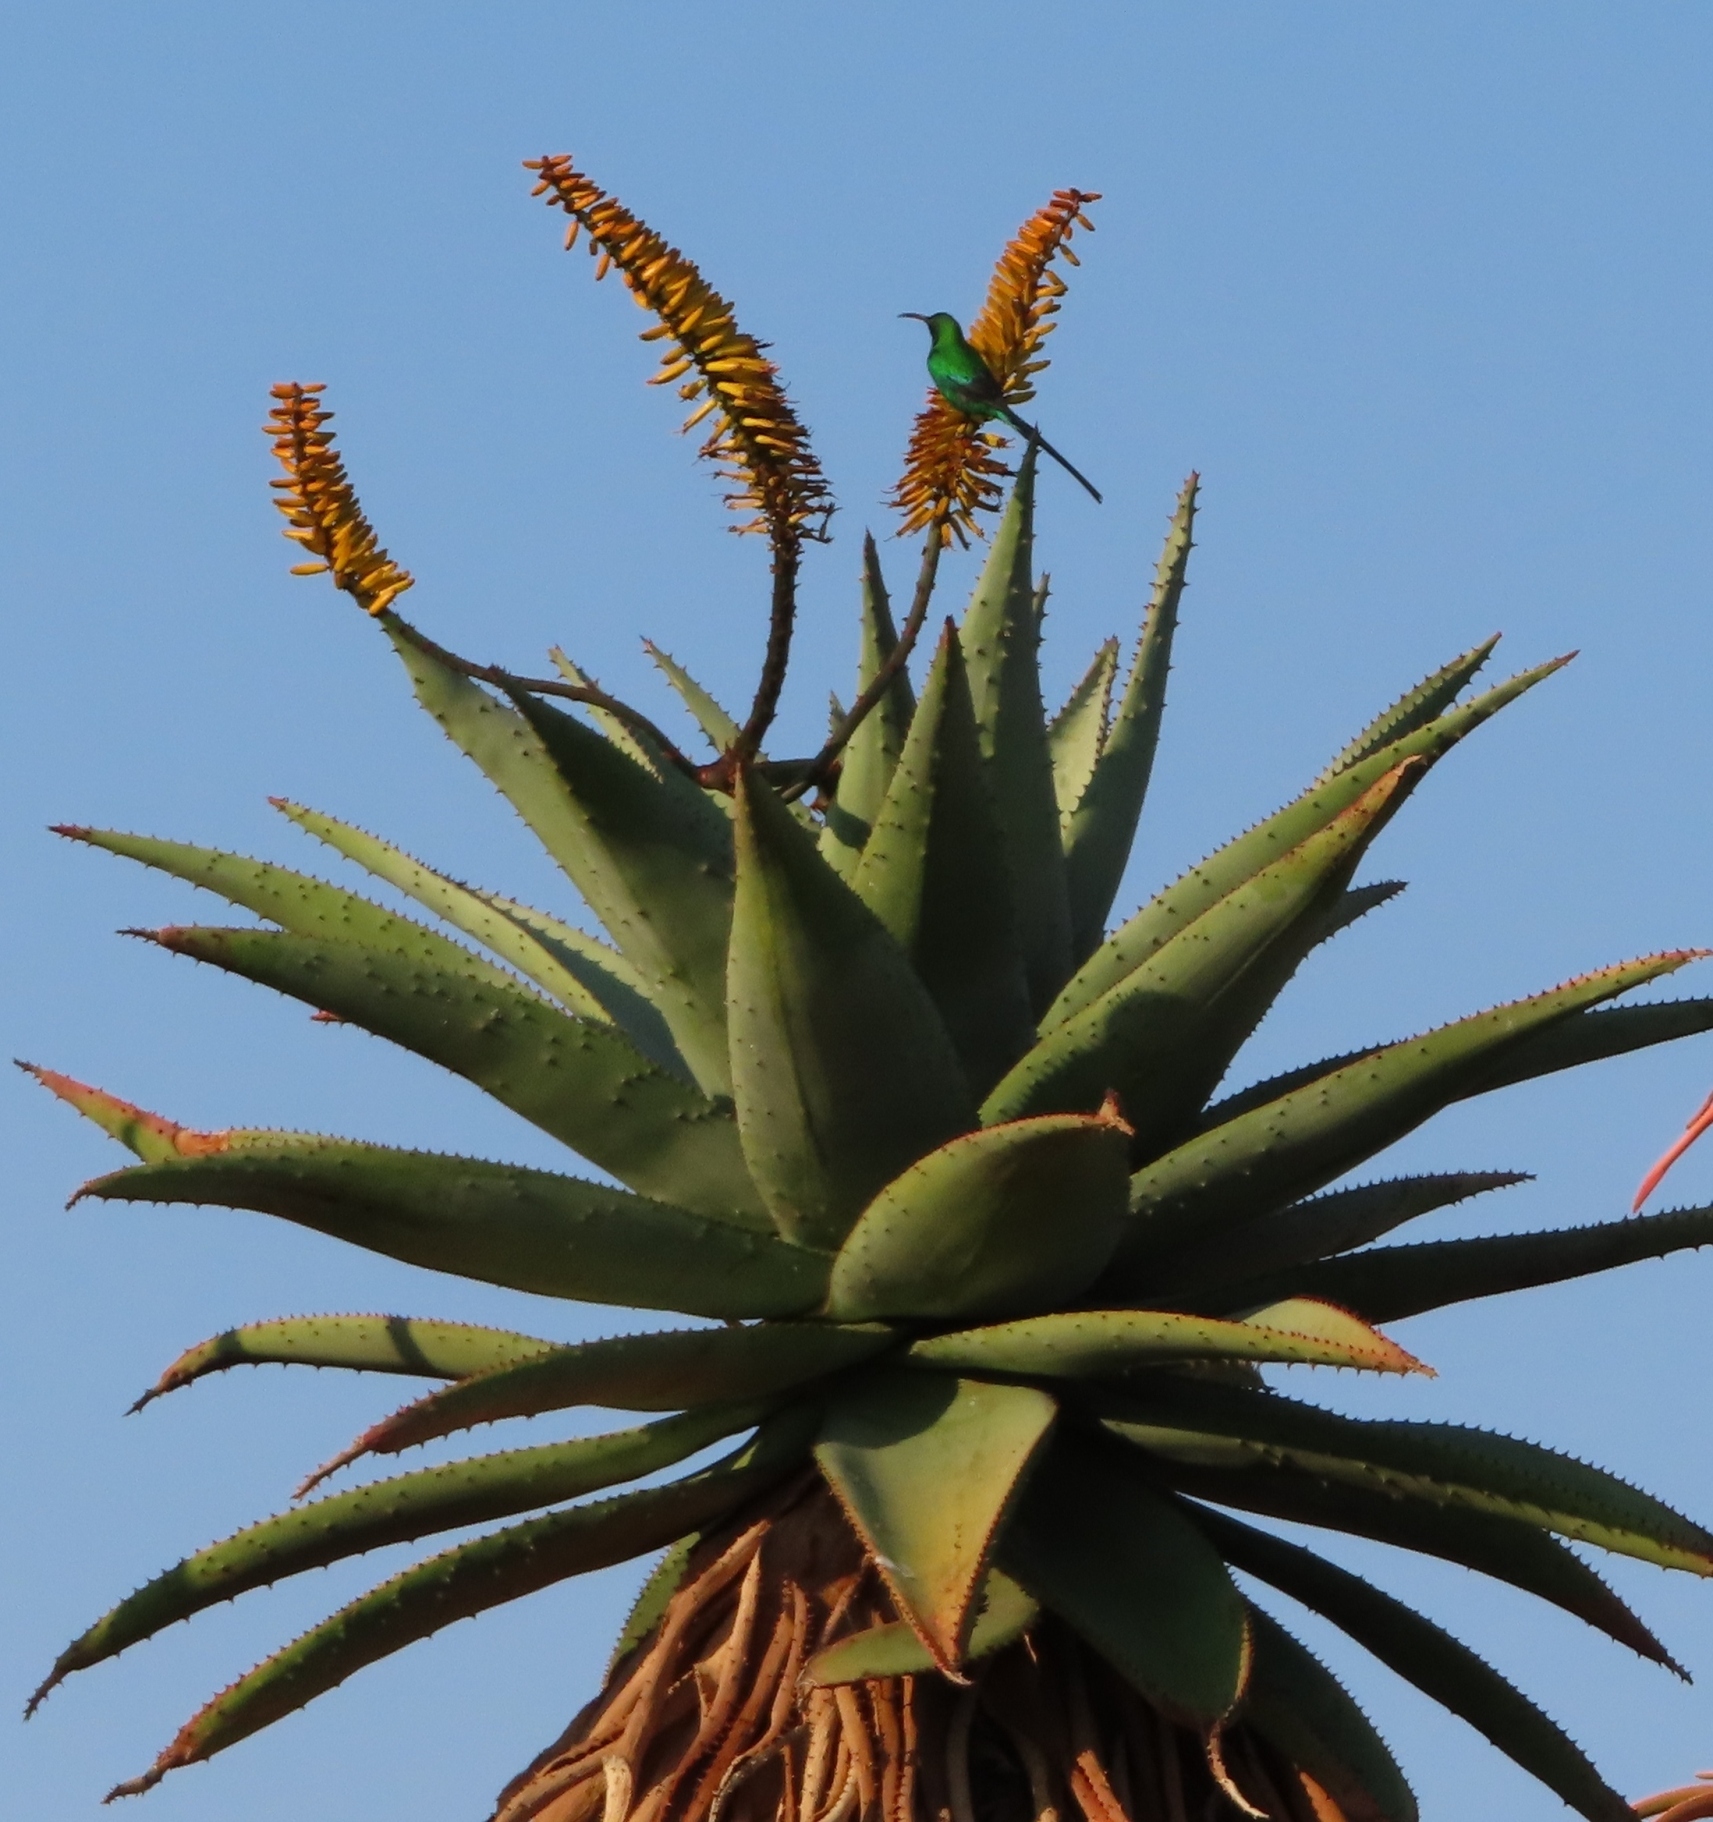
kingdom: Animalia
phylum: Chordata
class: Aves
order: Passeriformes
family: Nectariniidae
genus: Nectarinia
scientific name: Nectarinia famosa
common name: Malachite sunbird
